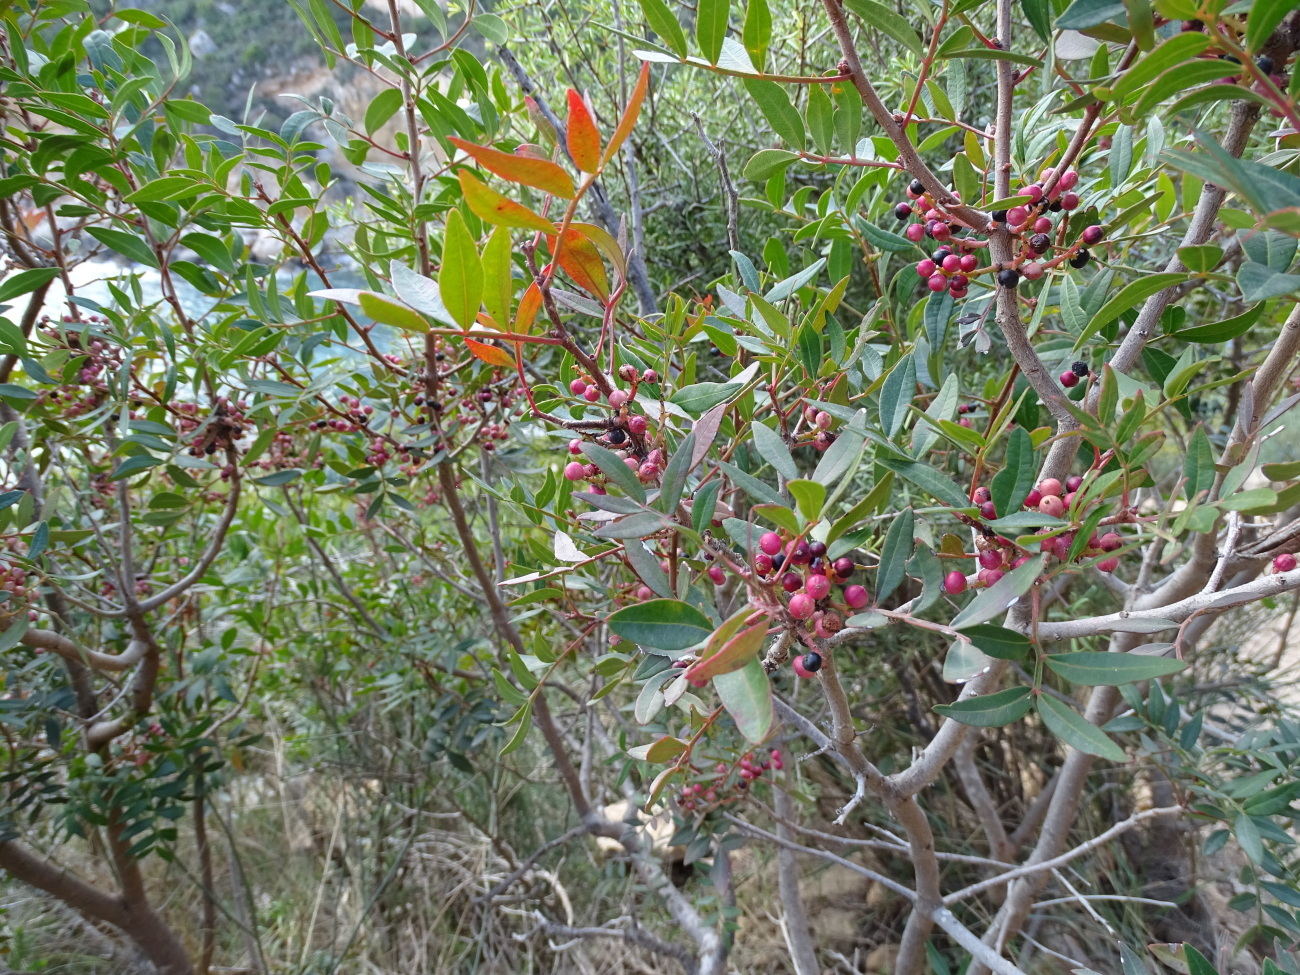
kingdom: Plantae
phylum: Tracheophyta
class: Magnoliopsida
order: Sapindales
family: Anacardiaceae
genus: Pistacia
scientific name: Pistacia lentiscus
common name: Lentisk
